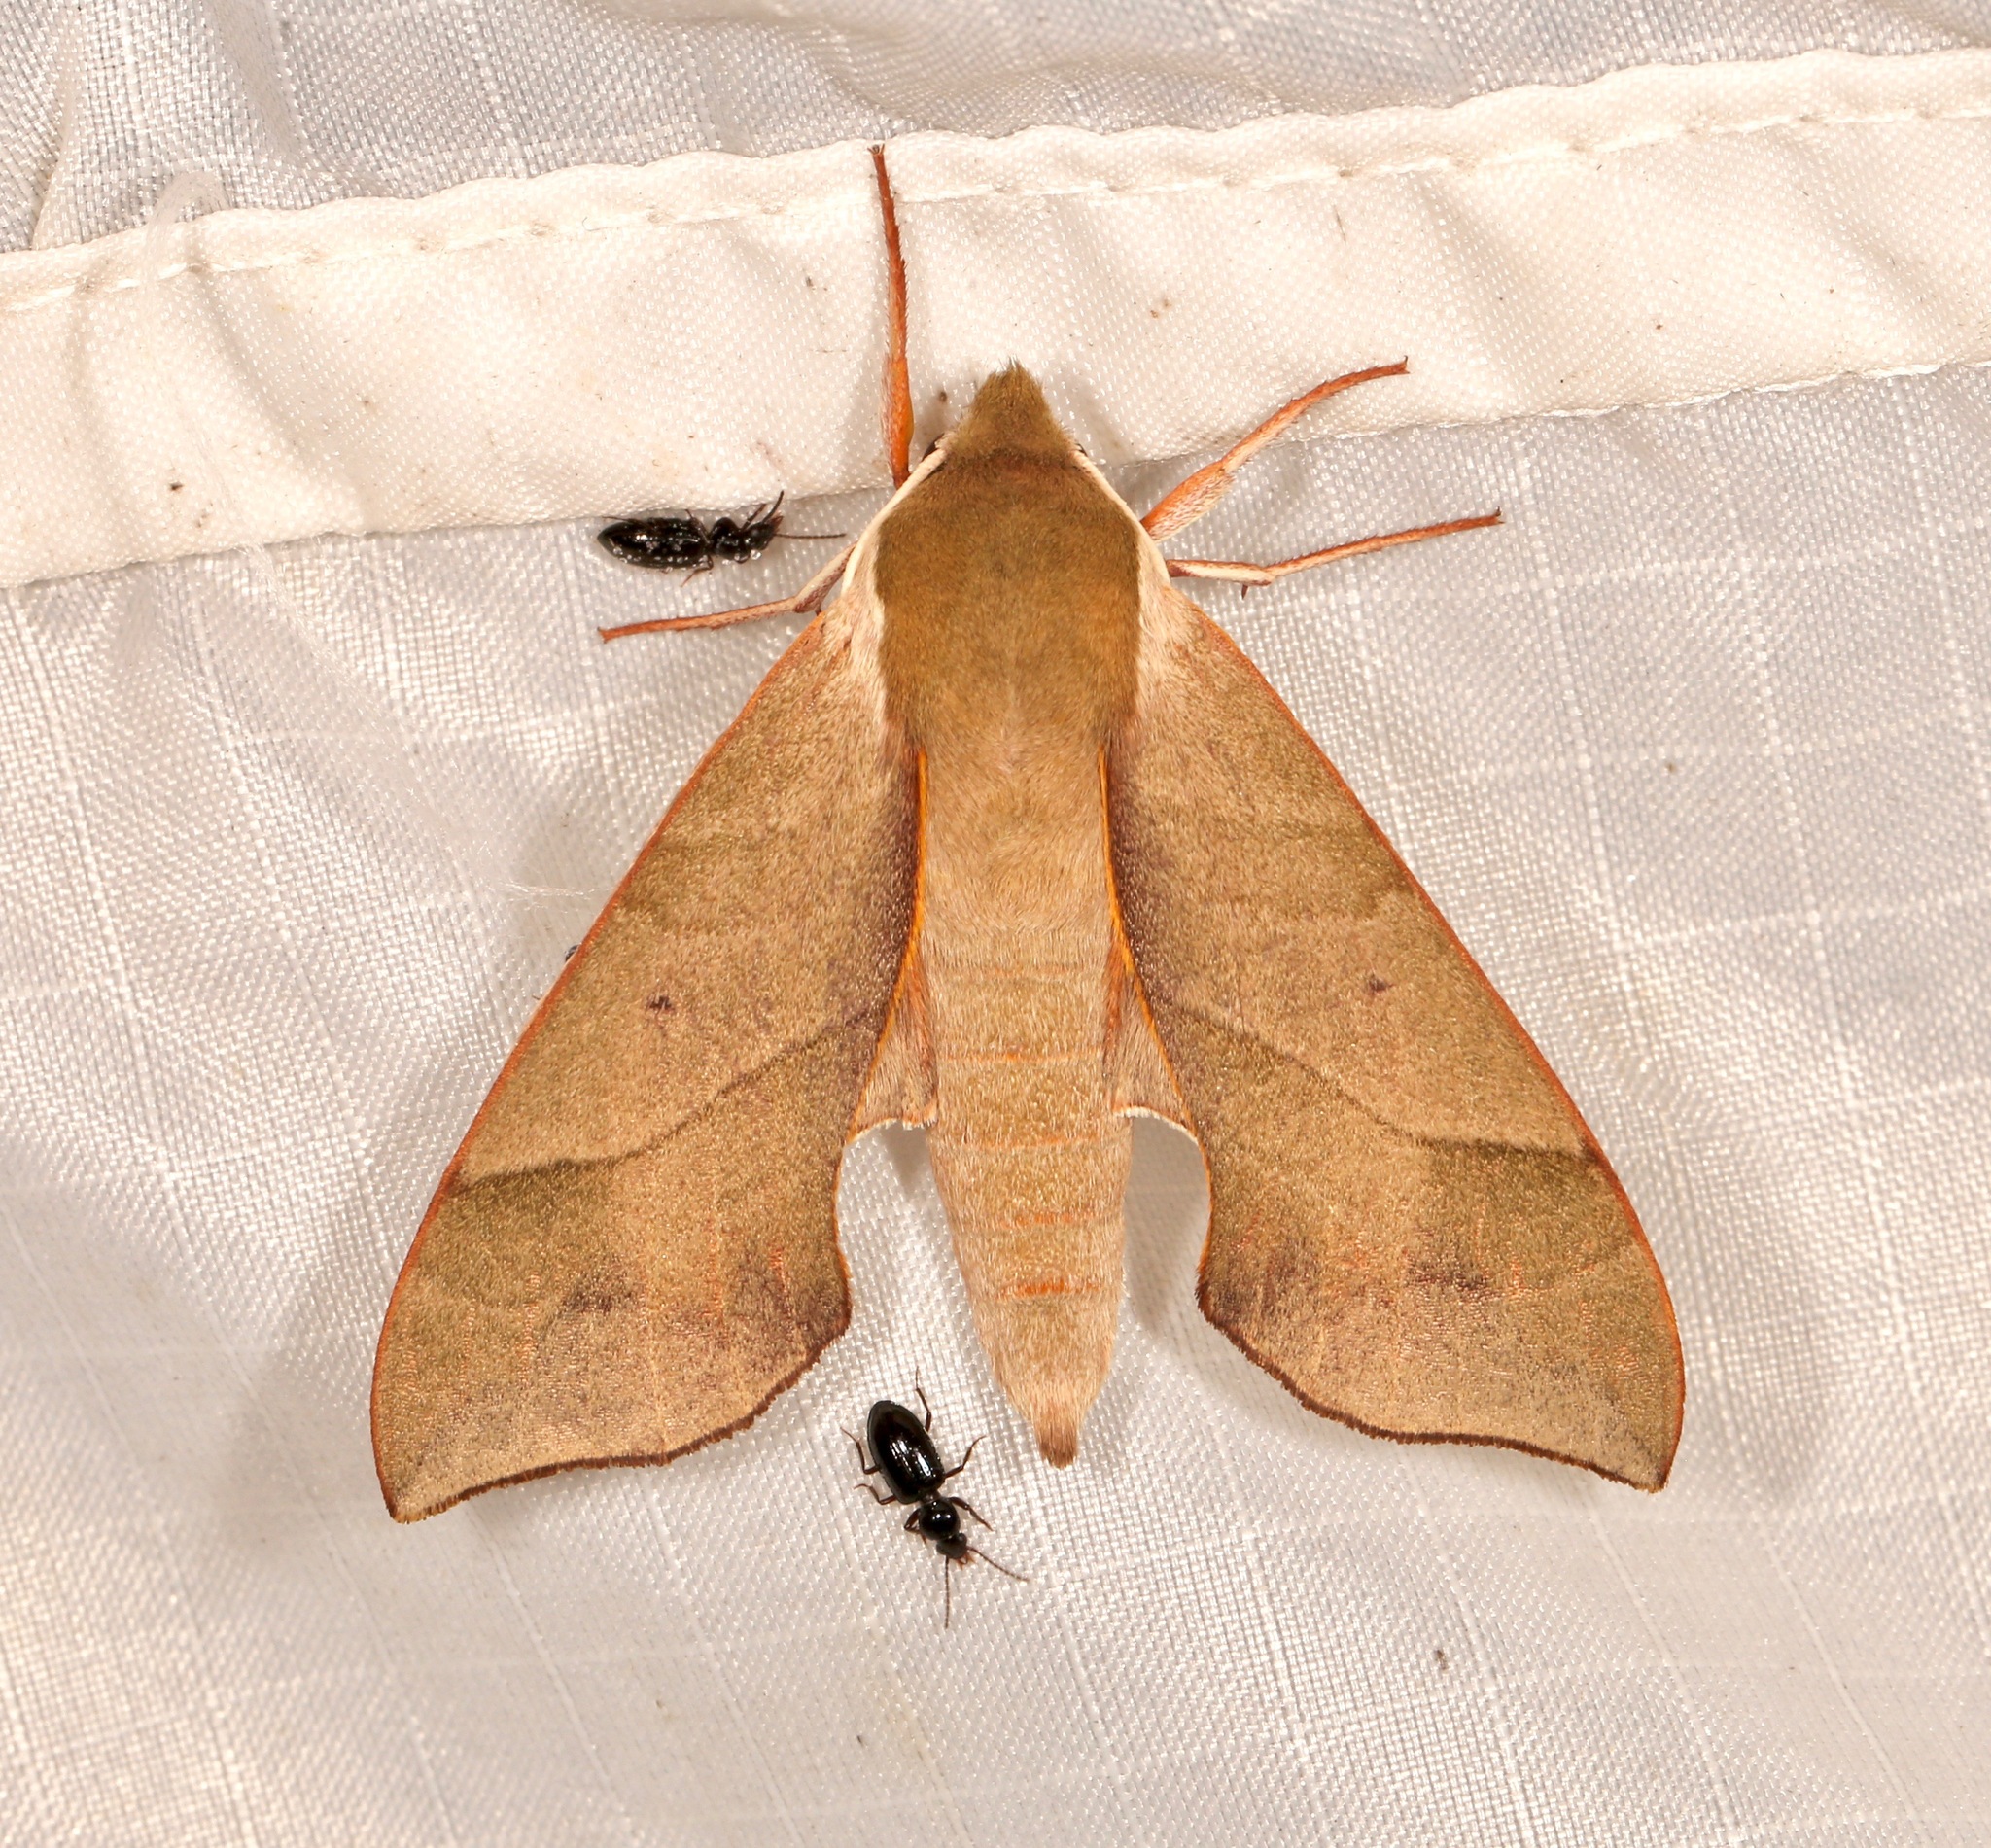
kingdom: Animalia
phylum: Arthropoda
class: Insecta
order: Lepidoptera
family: Sphingidae
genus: Darapsa
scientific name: Darapsa myron
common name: Hog sphinx
